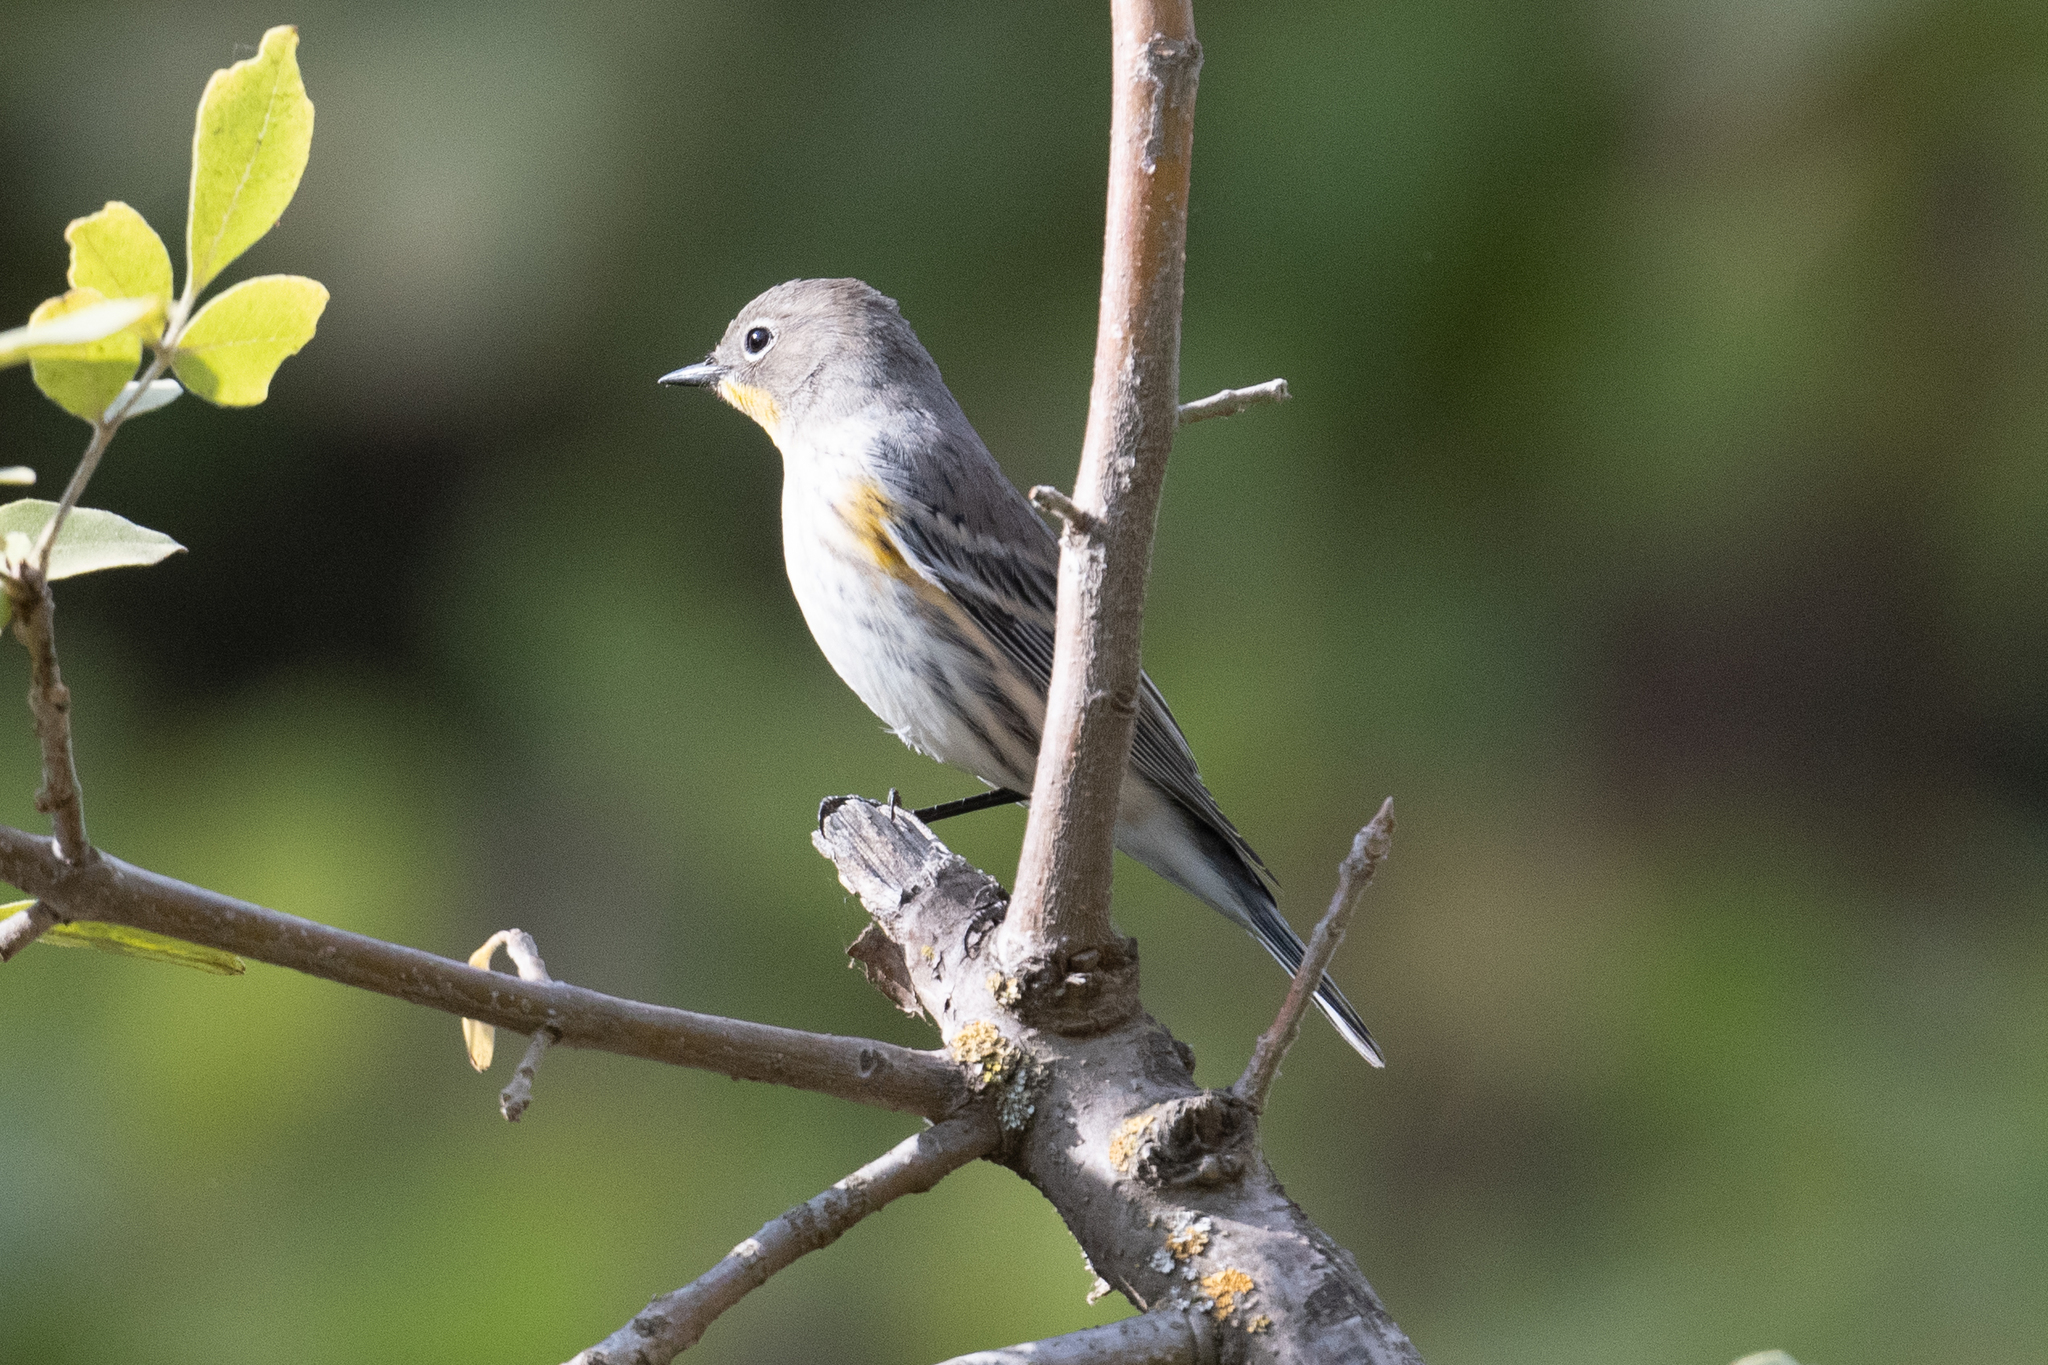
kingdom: Animalia
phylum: Chordata
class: Aves
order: Passeriformes
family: Parulidae
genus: Setophaga
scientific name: Setophaga coronata
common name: Myrtle warbler
